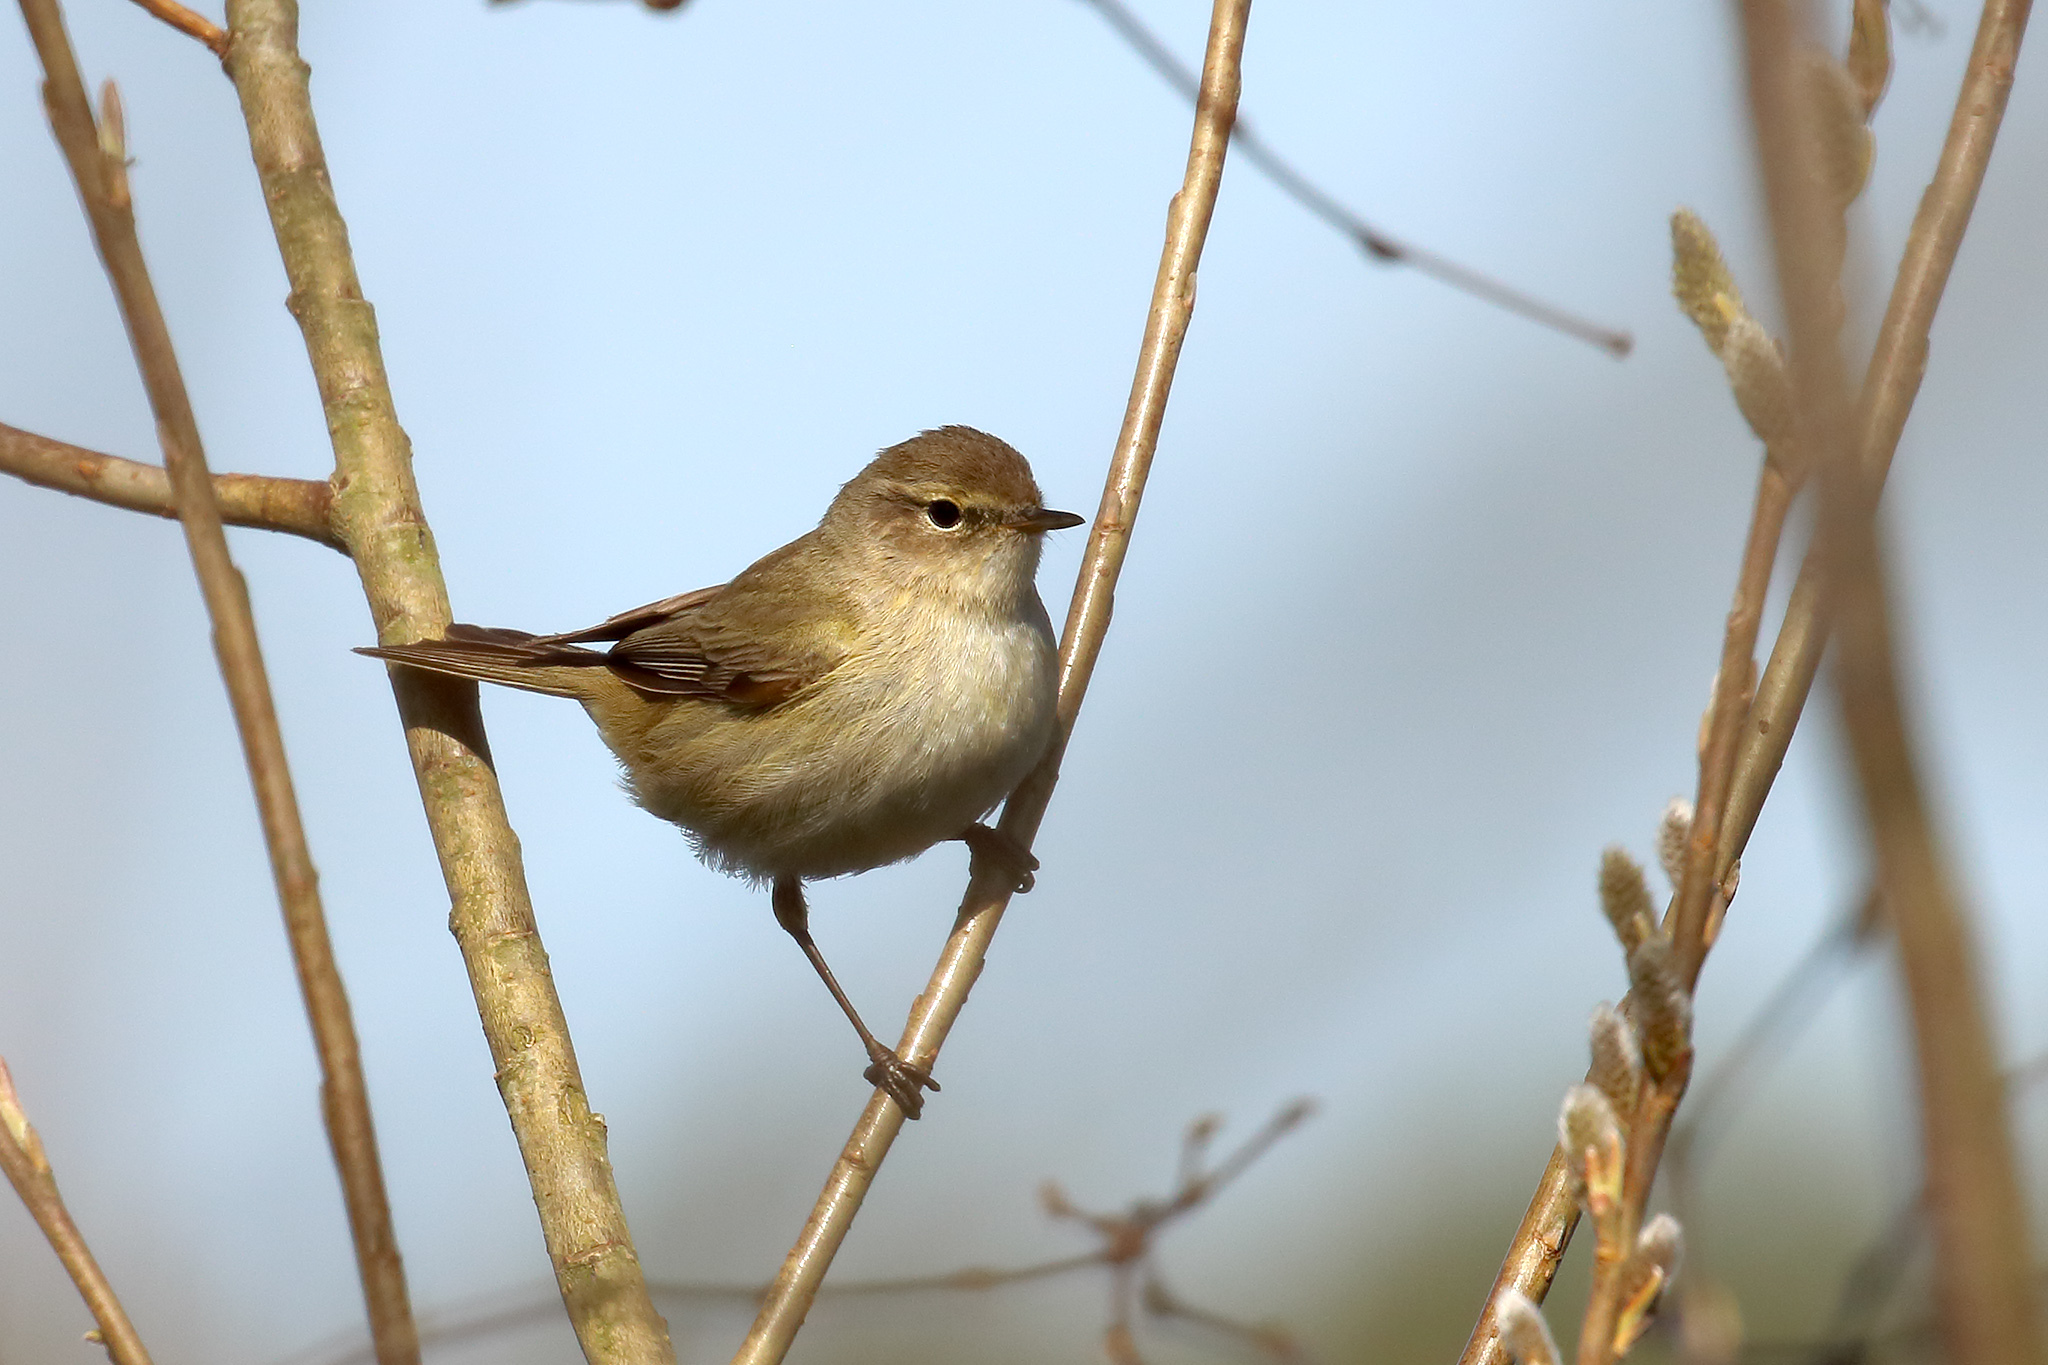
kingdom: Animalia
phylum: Chordata
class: Aves
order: Passeriformes
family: Phylloscopidae
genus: Phylloscopus
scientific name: Phylloscopus collybita
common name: Common chiffchaff
